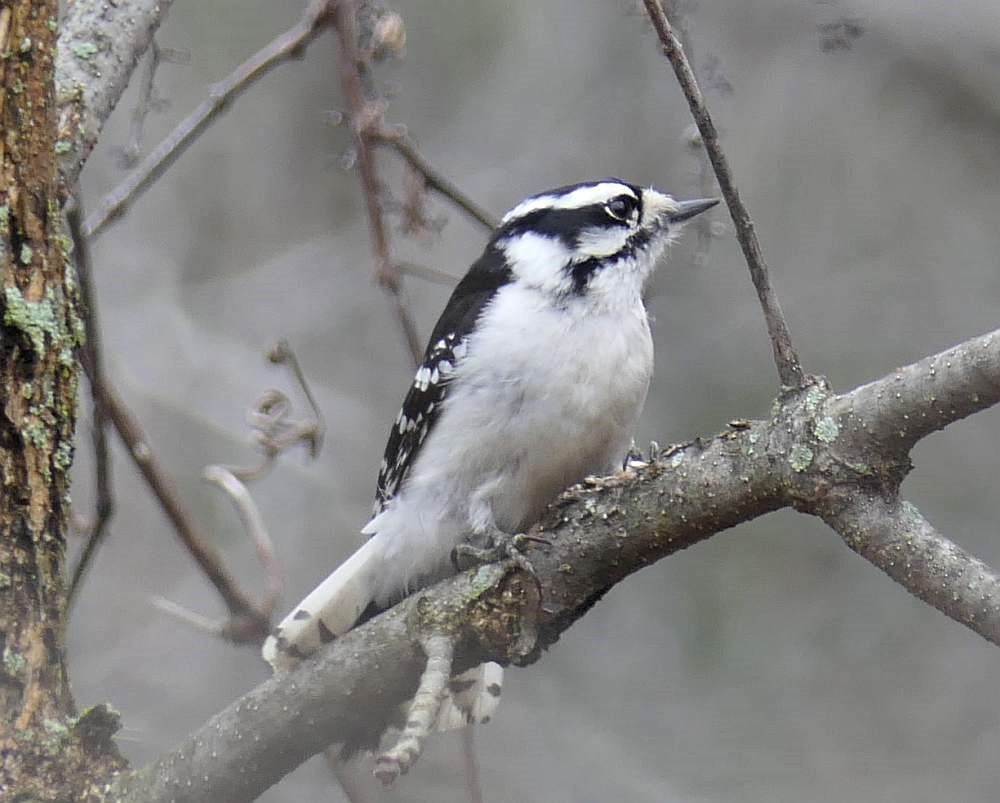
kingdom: Animalia
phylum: Chordata
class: Aves
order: Piciformes
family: Picidae
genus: Dryobates
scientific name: Dryobates pubescens
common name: Downy woodpecker
